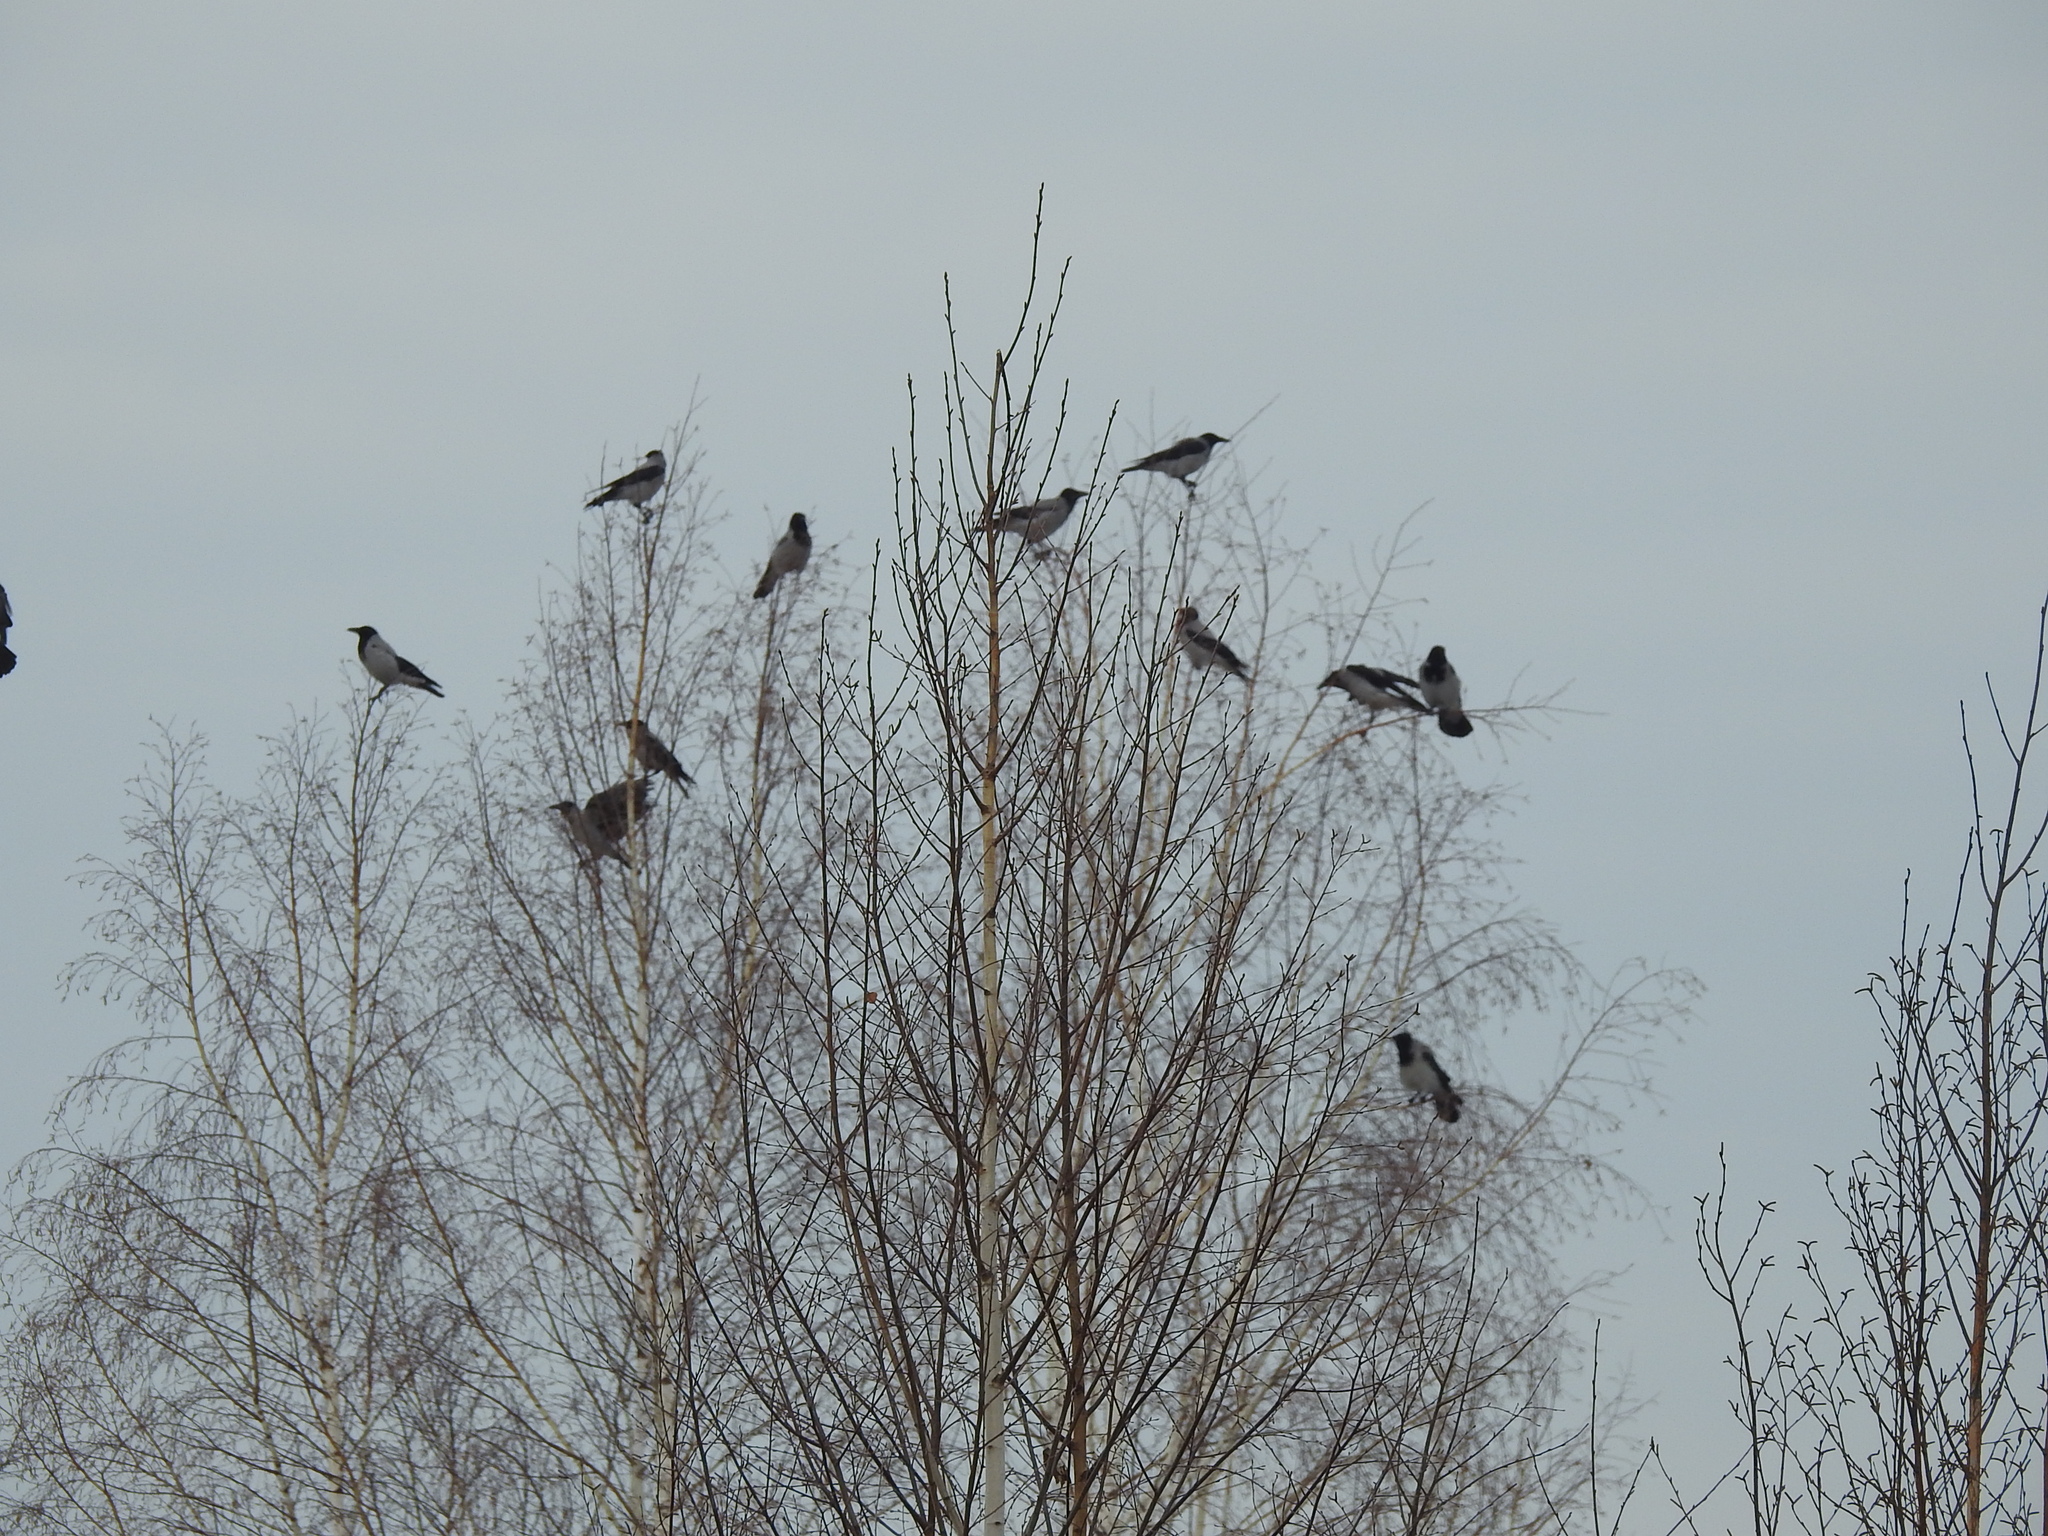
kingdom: Animalia
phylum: Chordata
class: Aves
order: Passeriformes
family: Corvidae
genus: Corvus
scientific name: Corvus cornix
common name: Hooded crow
